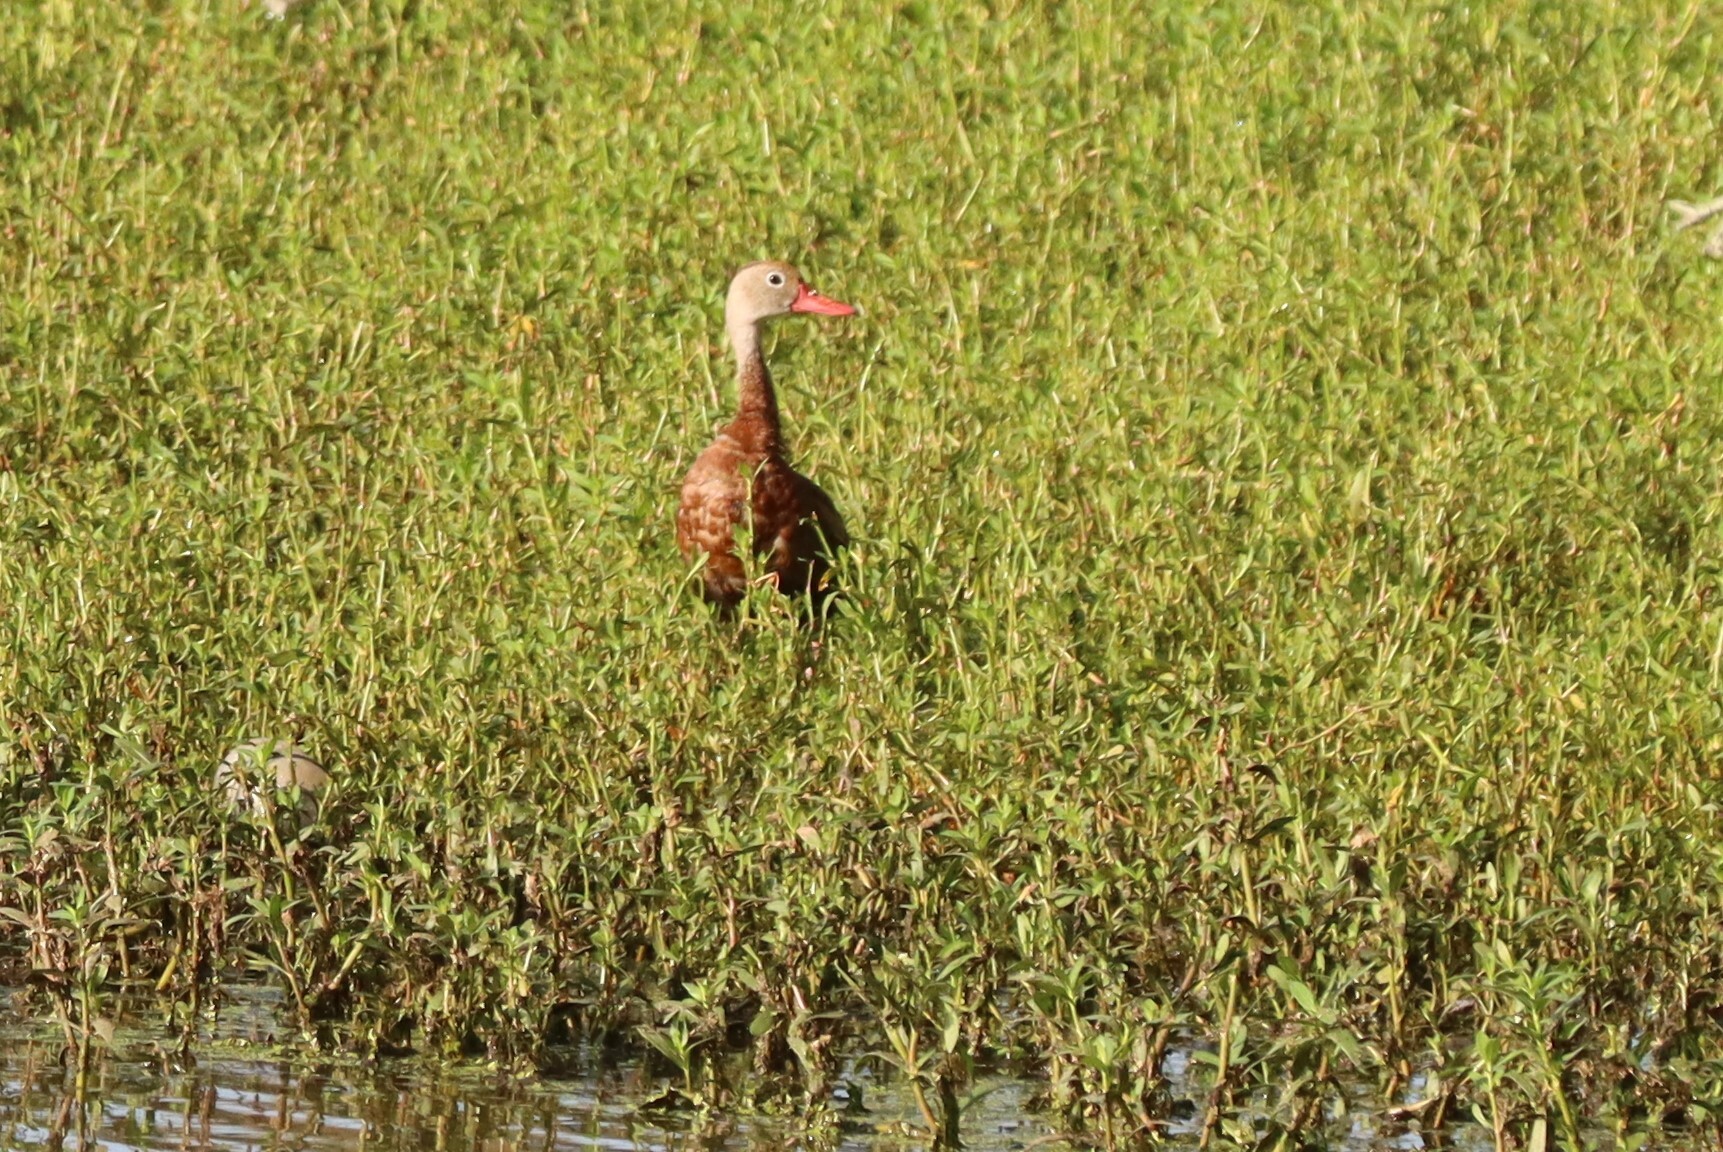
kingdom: Animalia
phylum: Chordata
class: Aves
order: Anseriformes
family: Anatidae
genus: Dendrocygna
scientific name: Dendrocygna autumnalis
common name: Black-bellied whistling duck
